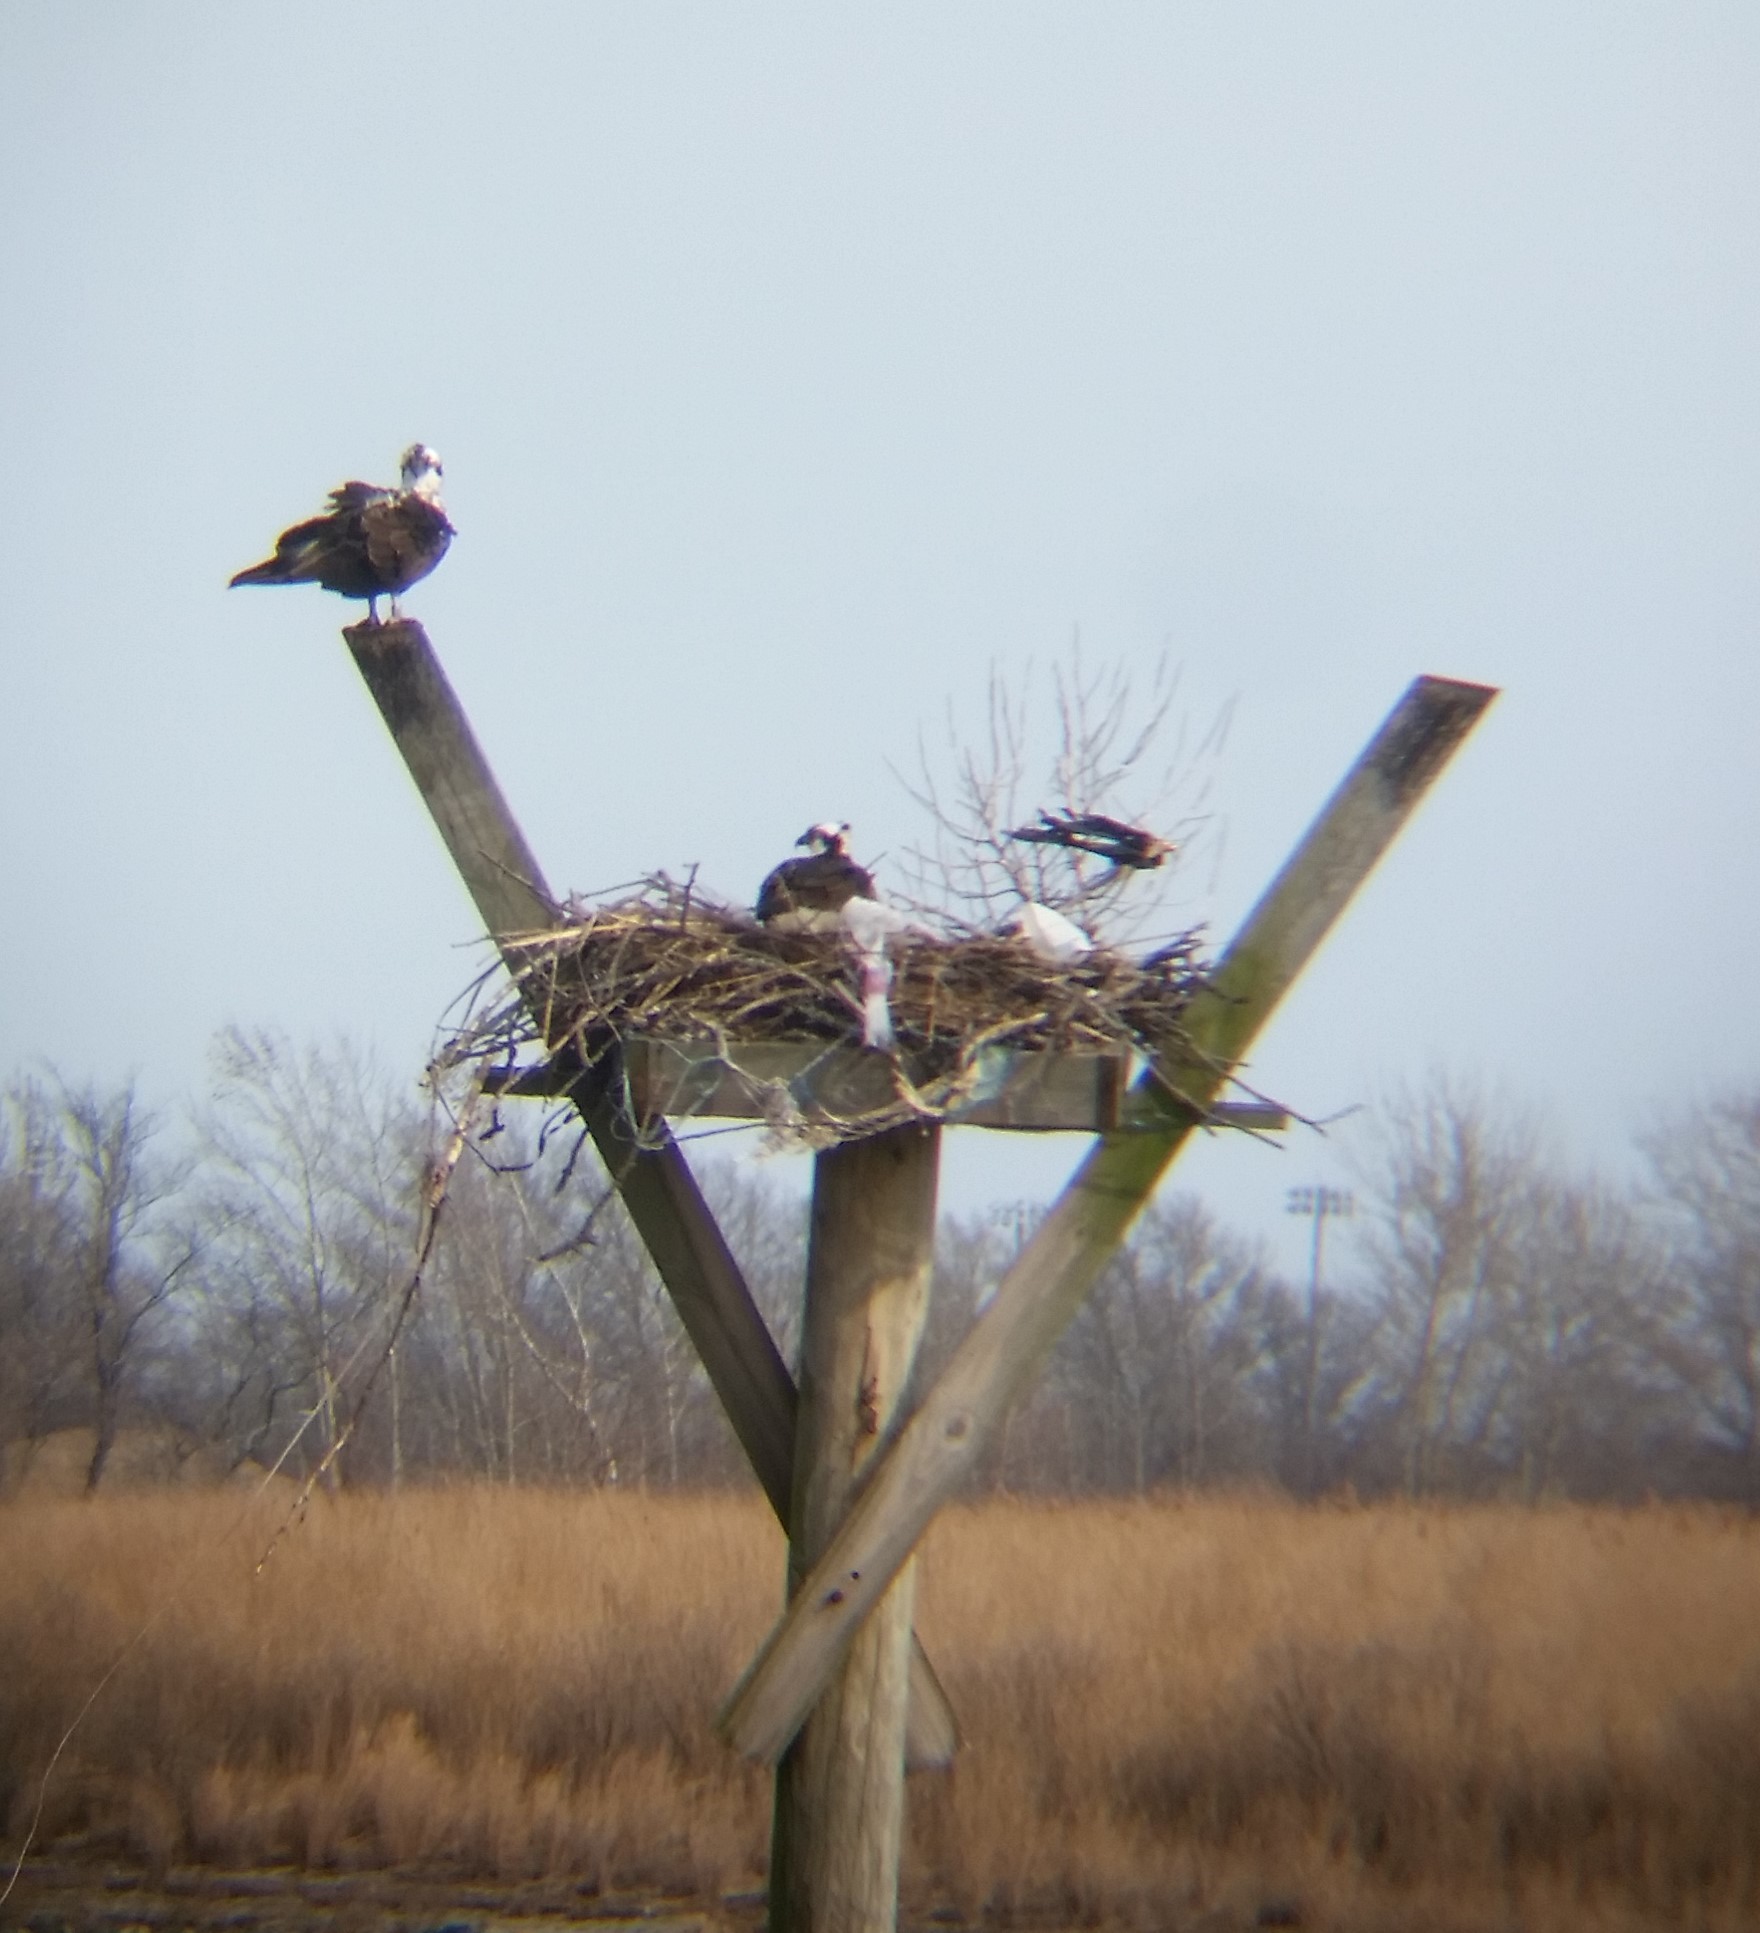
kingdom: Animalia
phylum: Chordata
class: Aves
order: Accipitriformes
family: Pandionidae
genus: Pandion
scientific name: Pandion haliaetus
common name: Osprey
